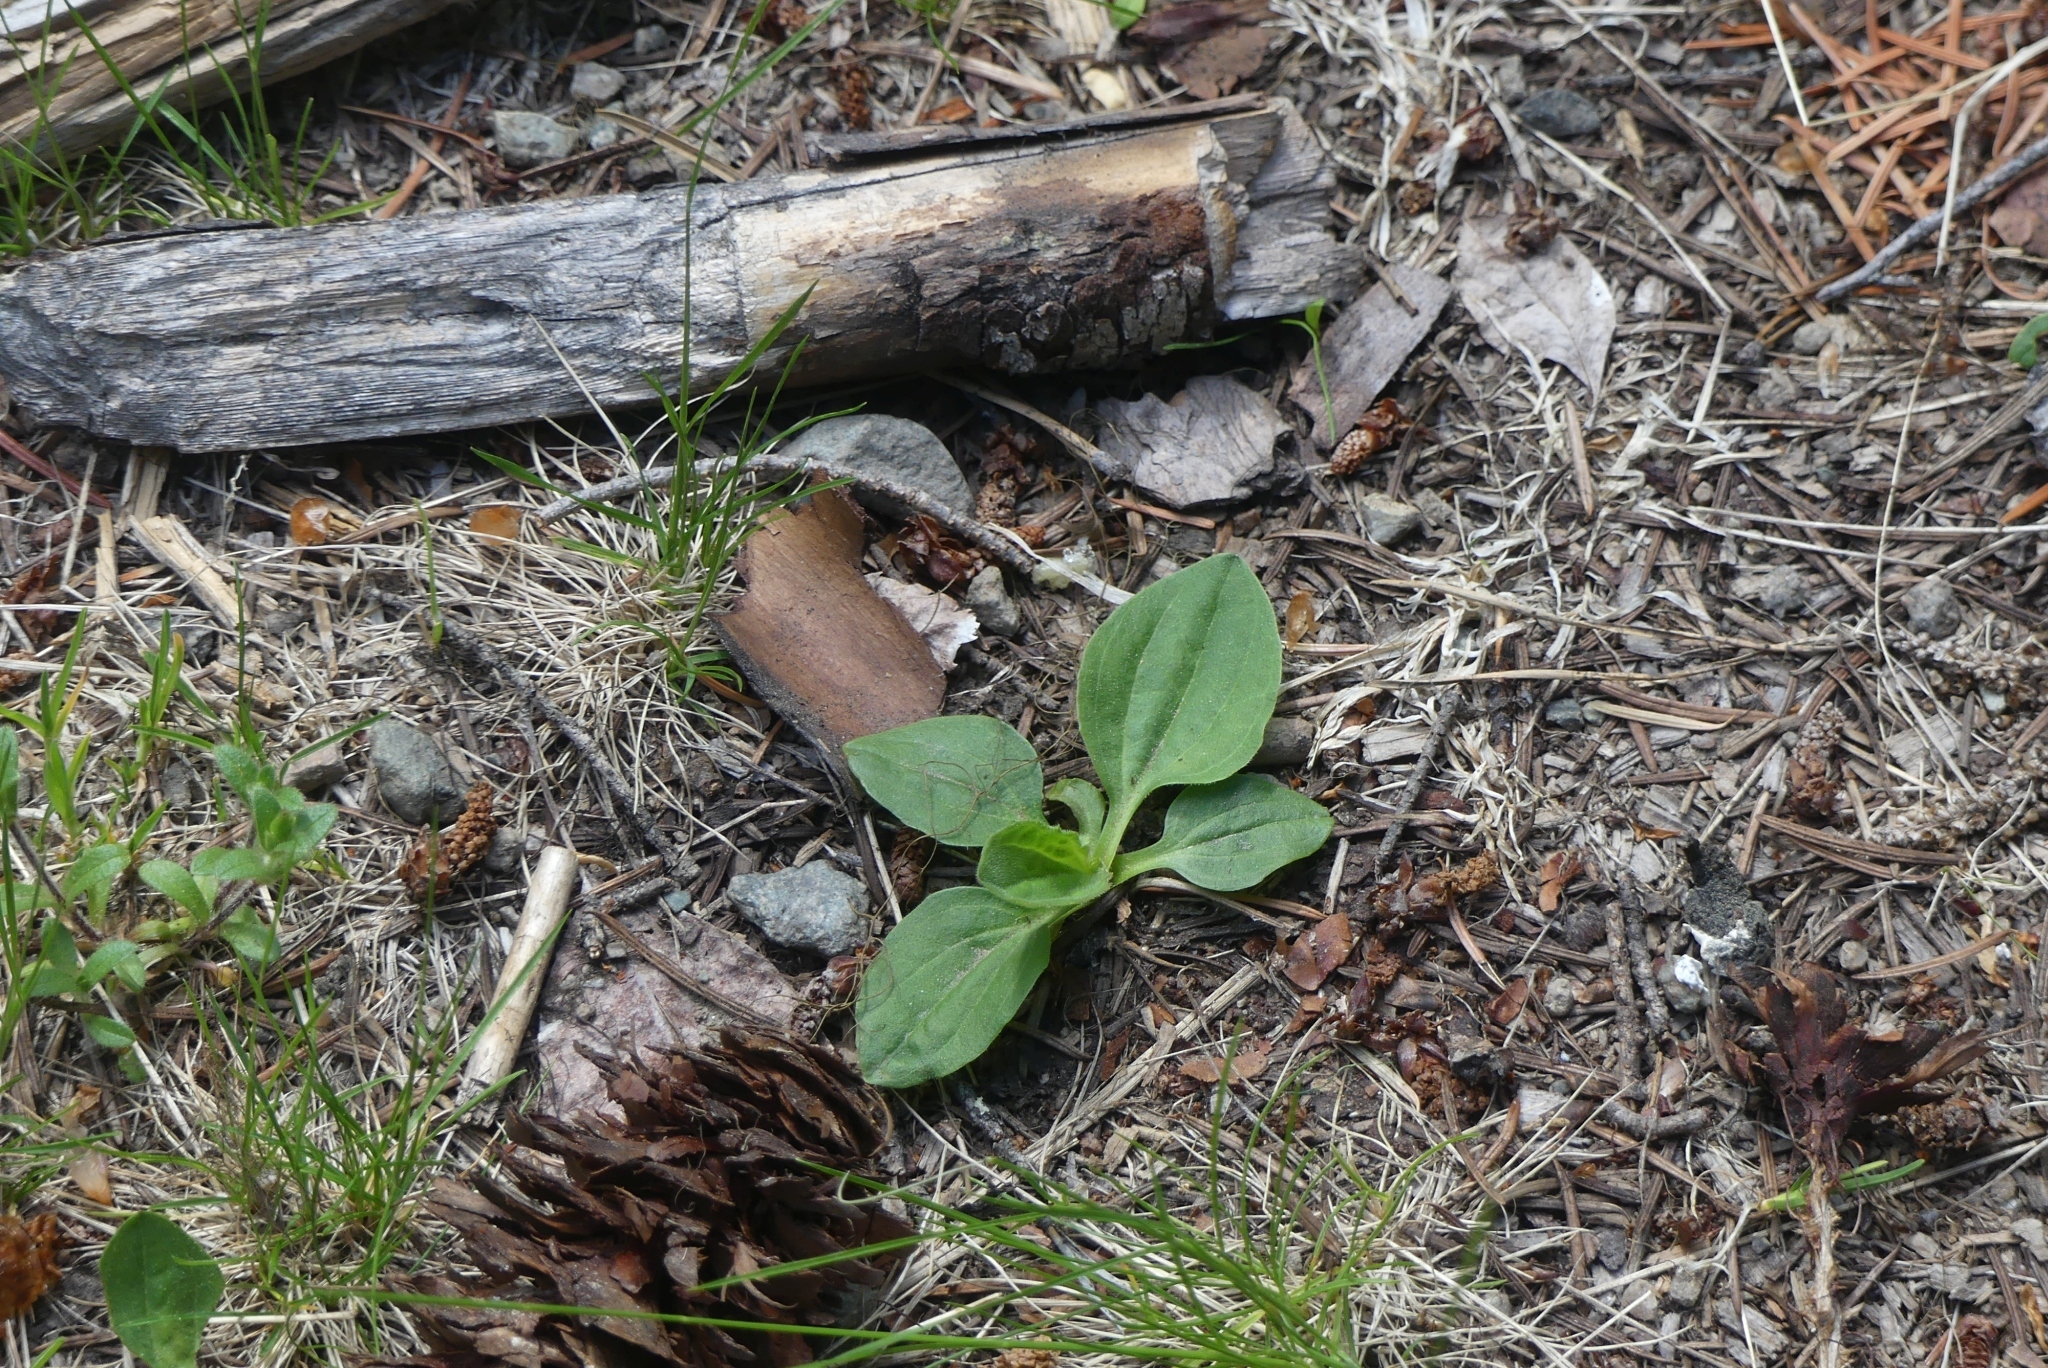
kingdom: Plantae
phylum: Tracheophyta
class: Magnoliopsida
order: Lamiales
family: Plantaginaceae
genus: Plantago
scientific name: Plantago major
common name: Common plantain
